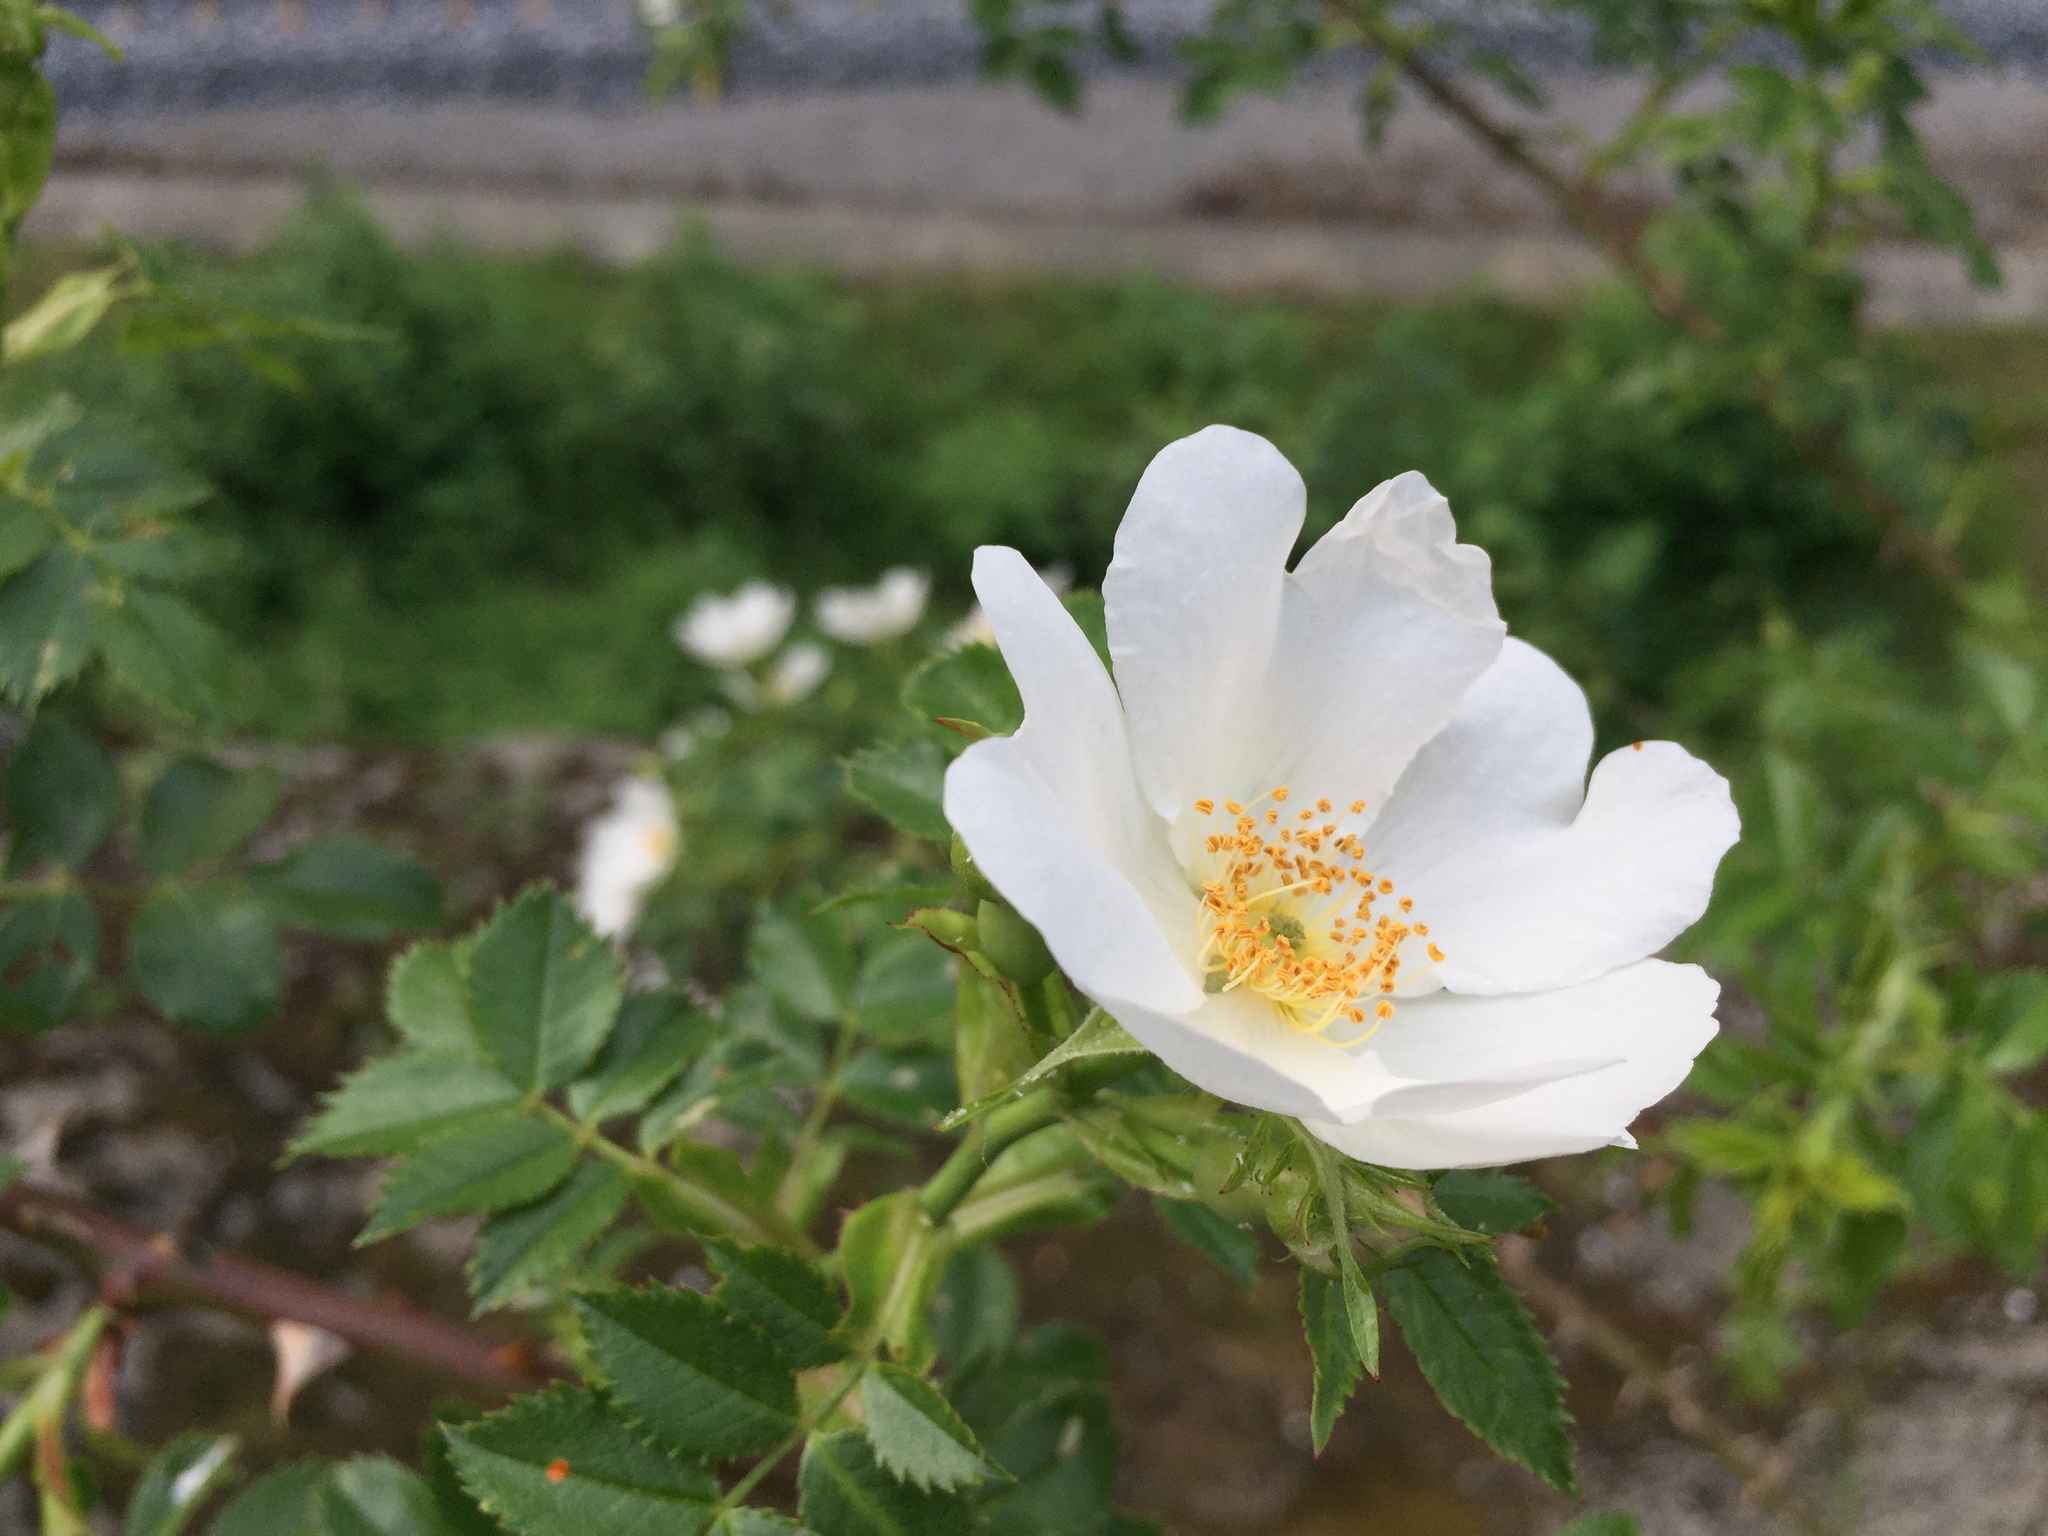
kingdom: Plantae
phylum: Tracheophyta
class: Magnoliopsida
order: Rosales
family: Rosaceae
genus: Rosa
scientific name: Rosa canina
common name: Dog rose
